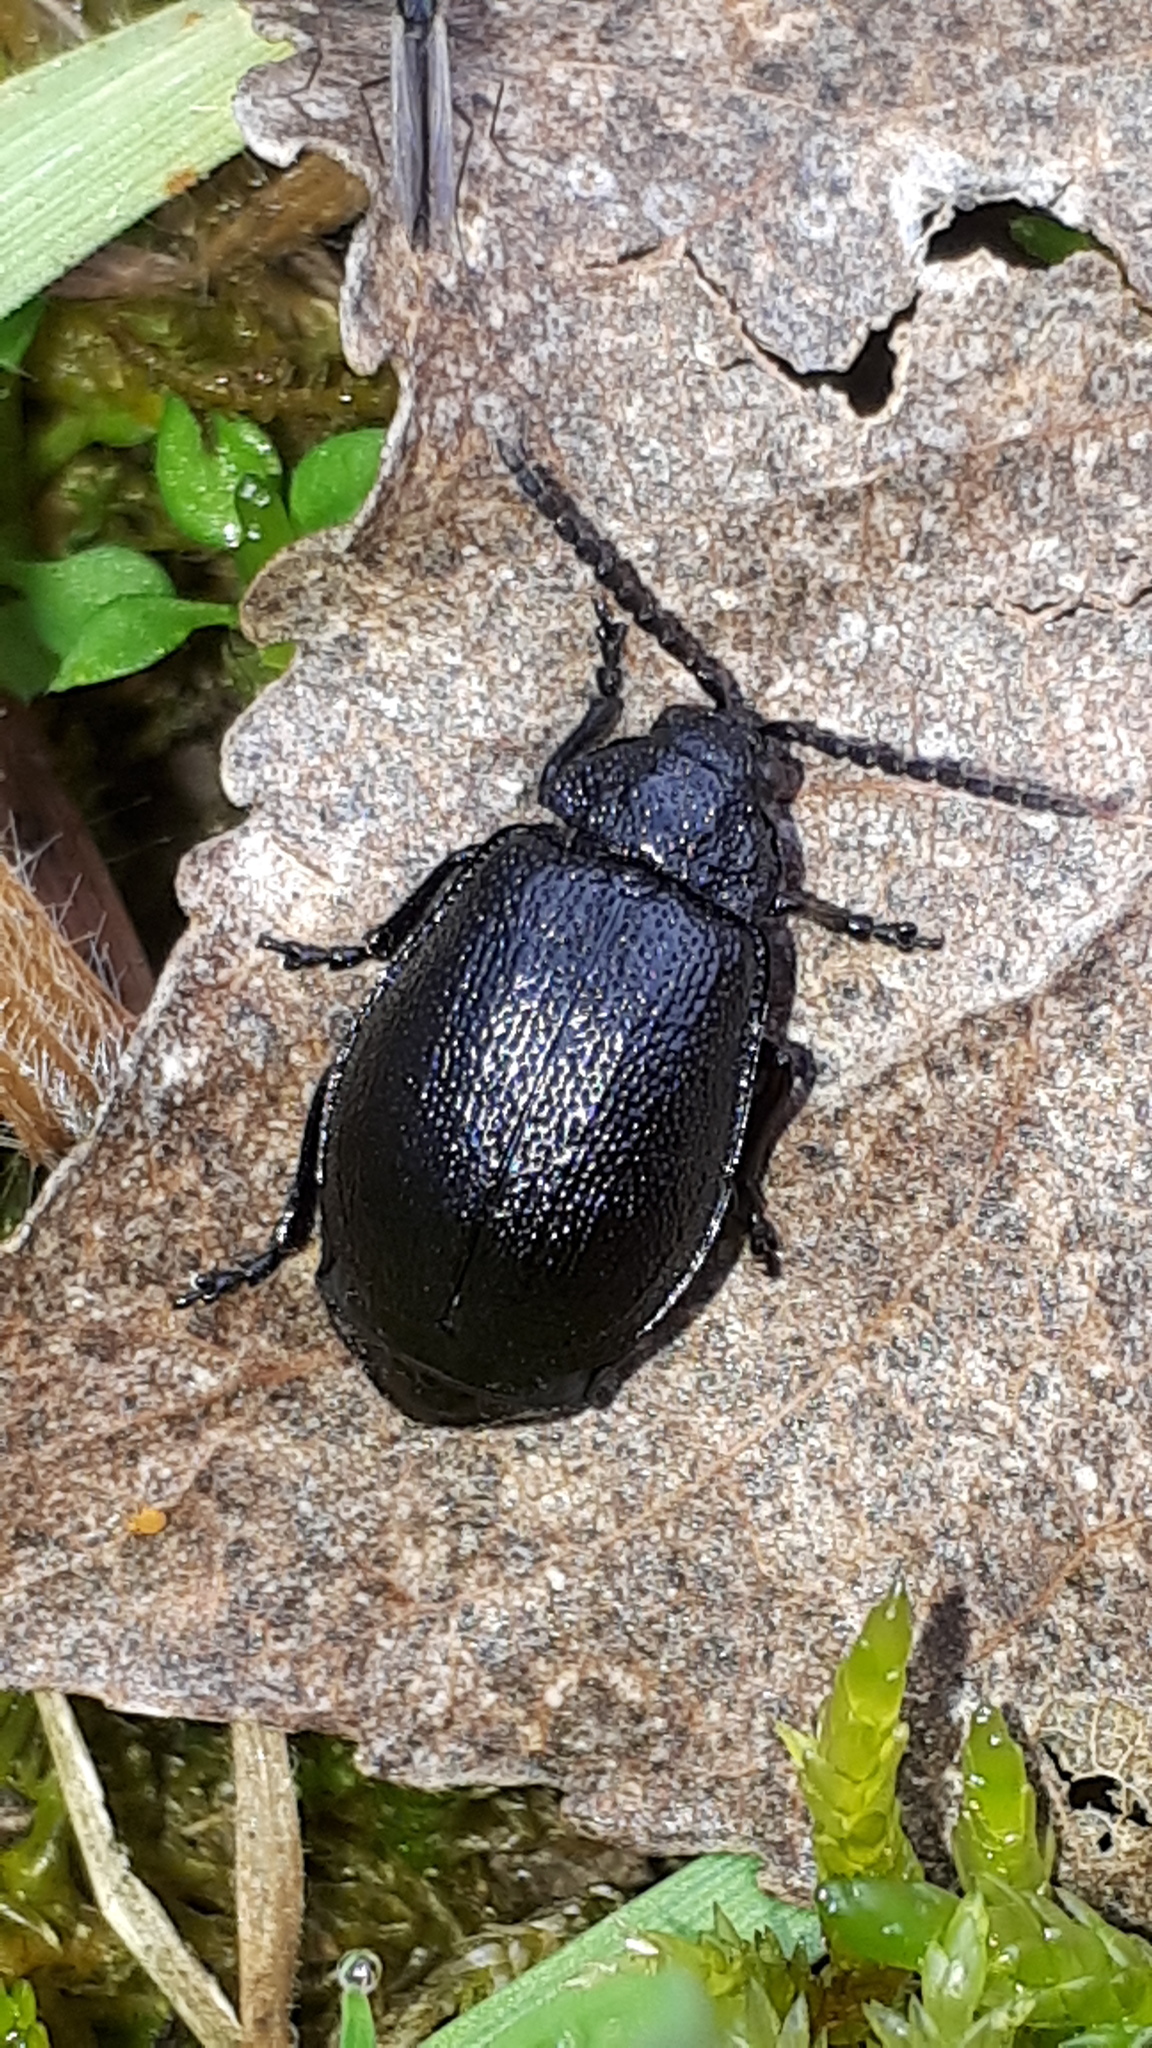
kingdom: Animalia
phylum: Arthropoda
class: Insecta
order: Coleoptera
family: Chrysomelidae
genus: Galeruca
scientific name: Galeruca tanaceti
